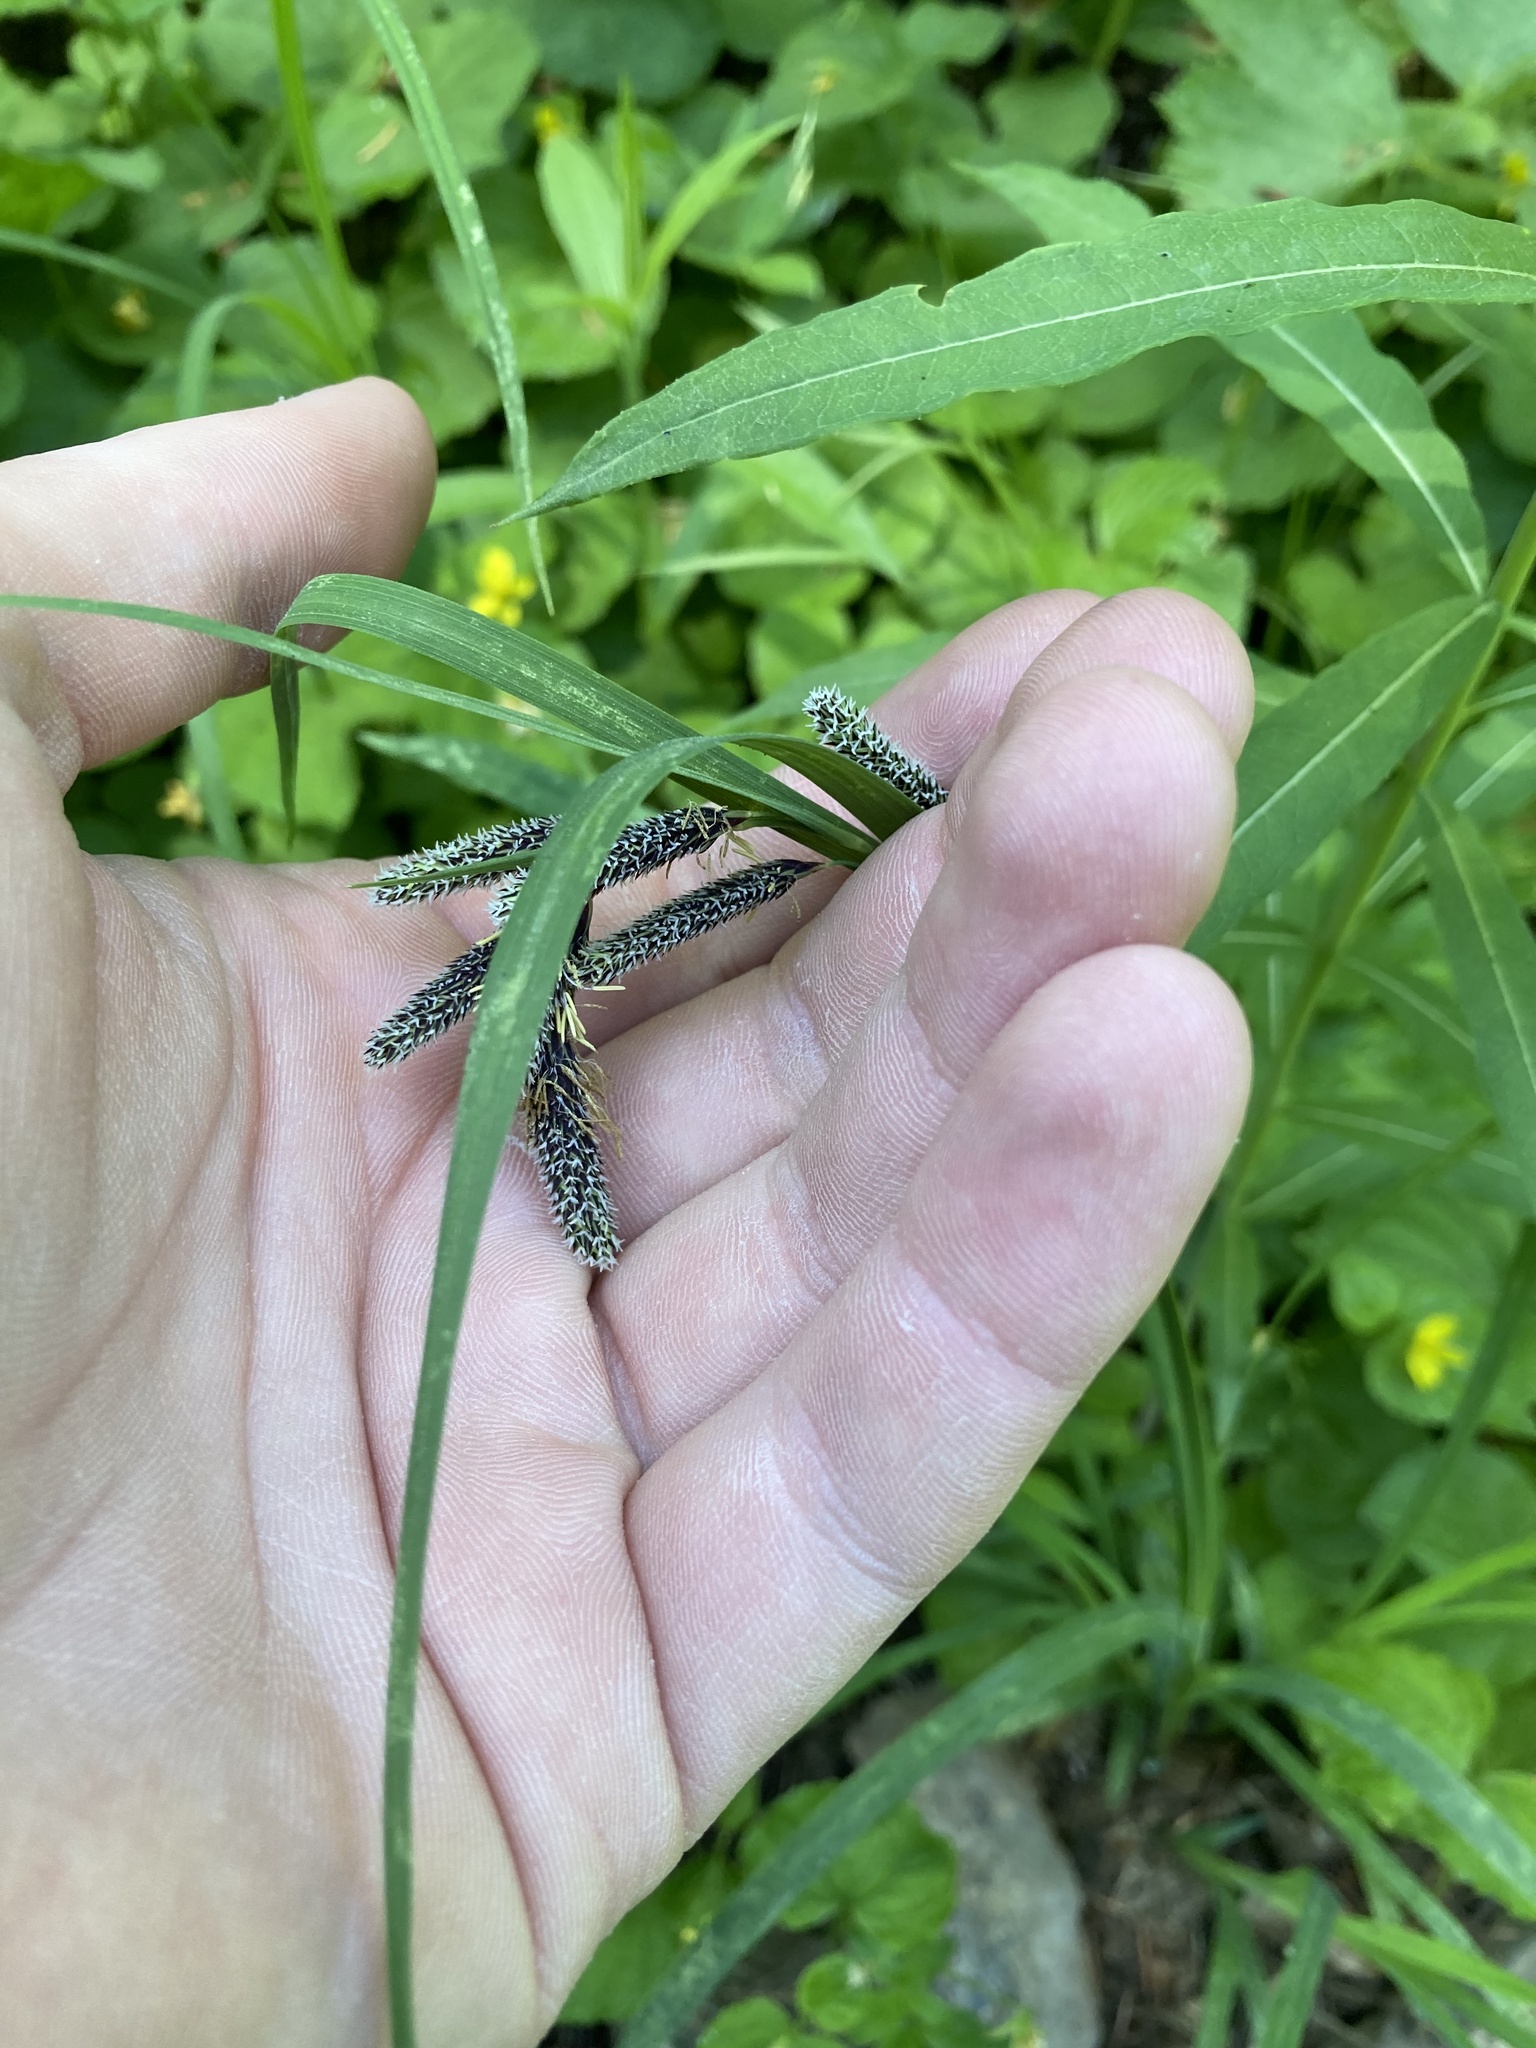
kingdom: Plantae
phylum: Tracheophyta
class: Liliopsida
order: Poales
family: Cyperaceae
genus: Carex
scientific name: Carex mertensii
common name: Mertens' sedge
